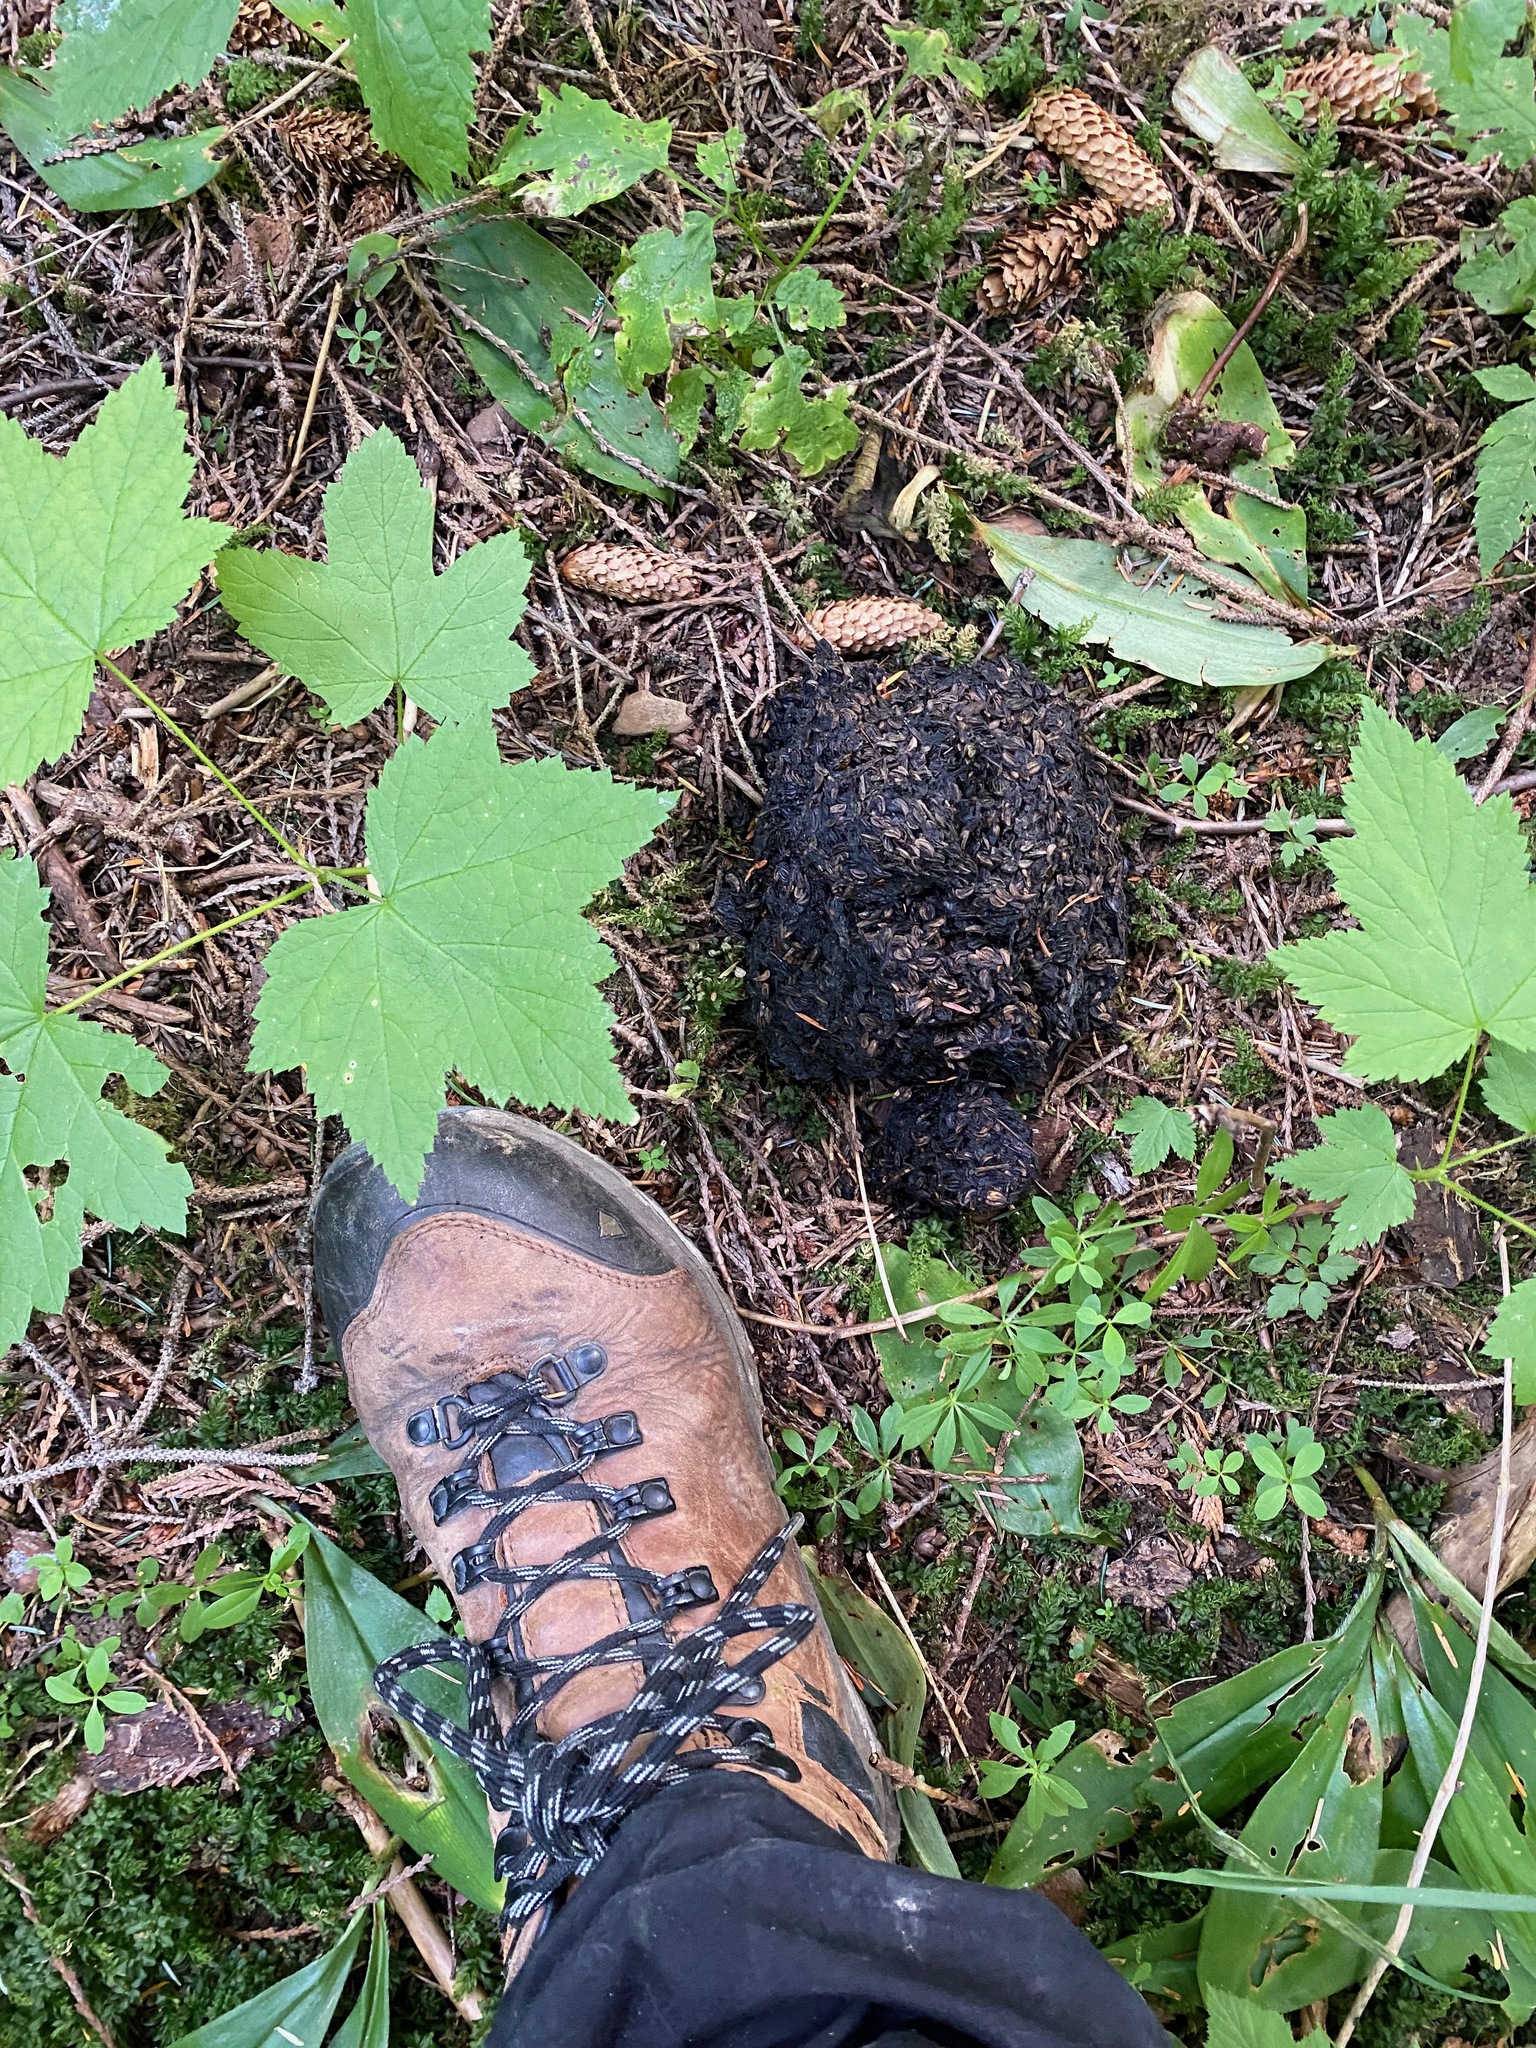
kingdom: Animalia
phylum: Chordata
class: Mammalia
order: Carnivora
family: Ursidae
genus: Ursus
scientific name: Ursus americanus
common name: American black bear
